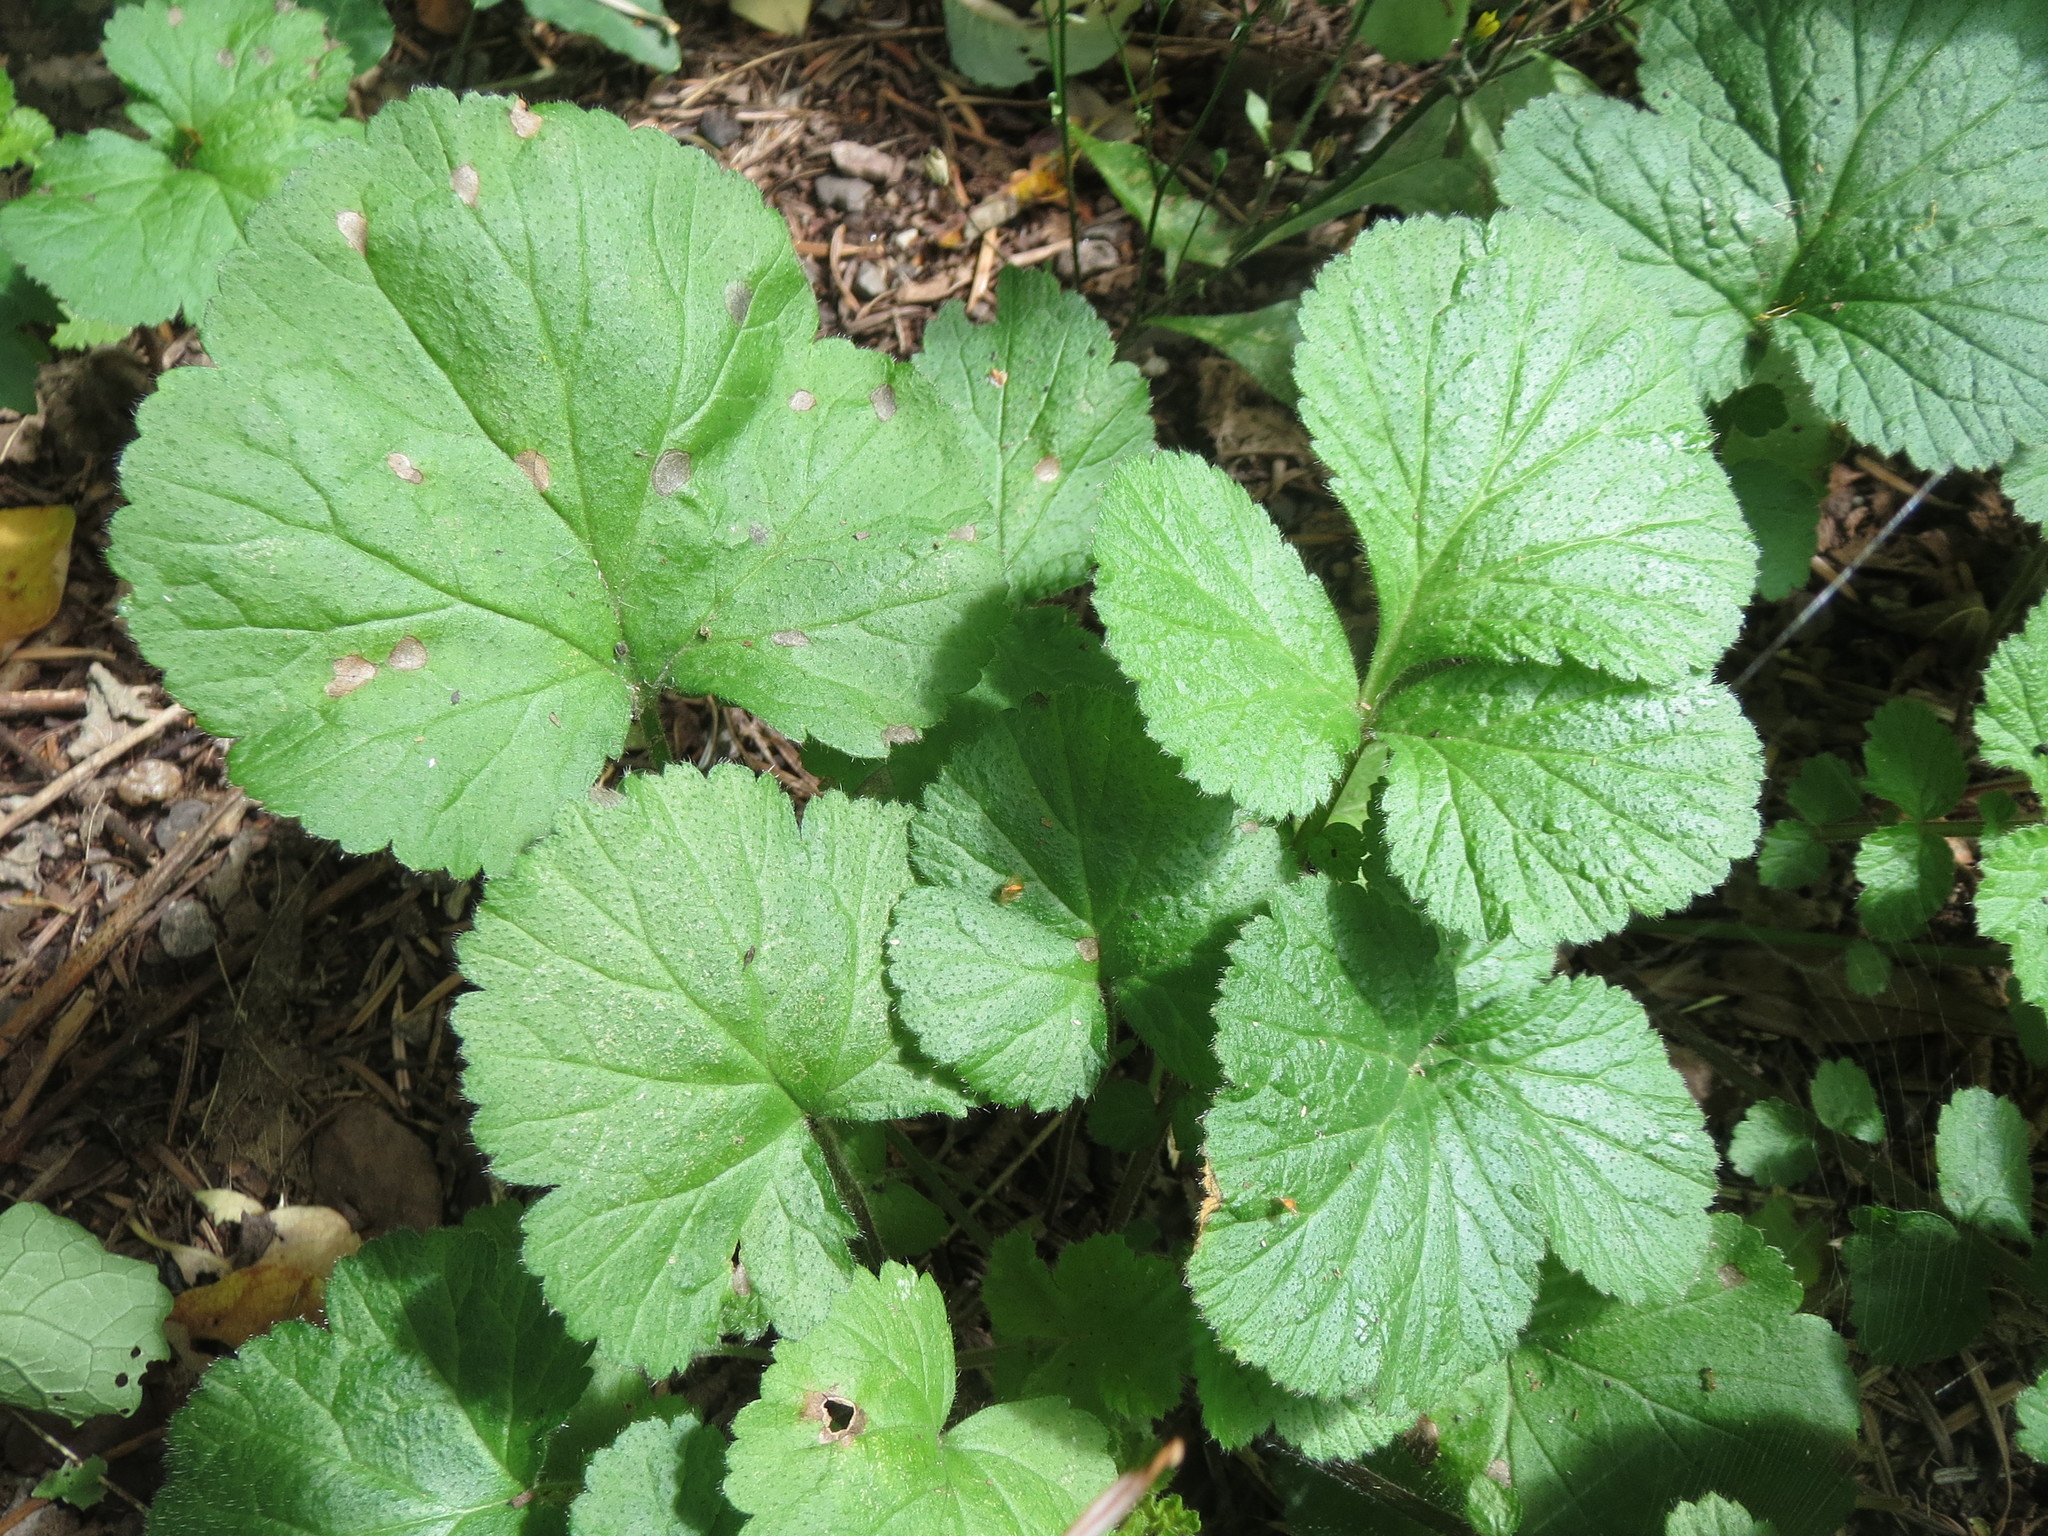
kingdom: Plantae
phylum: Tracheophyta
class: Magnoliopsida
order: Rosales
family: Rosaceae
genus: Geum
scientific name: Geum urbanum
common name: Wood avens
